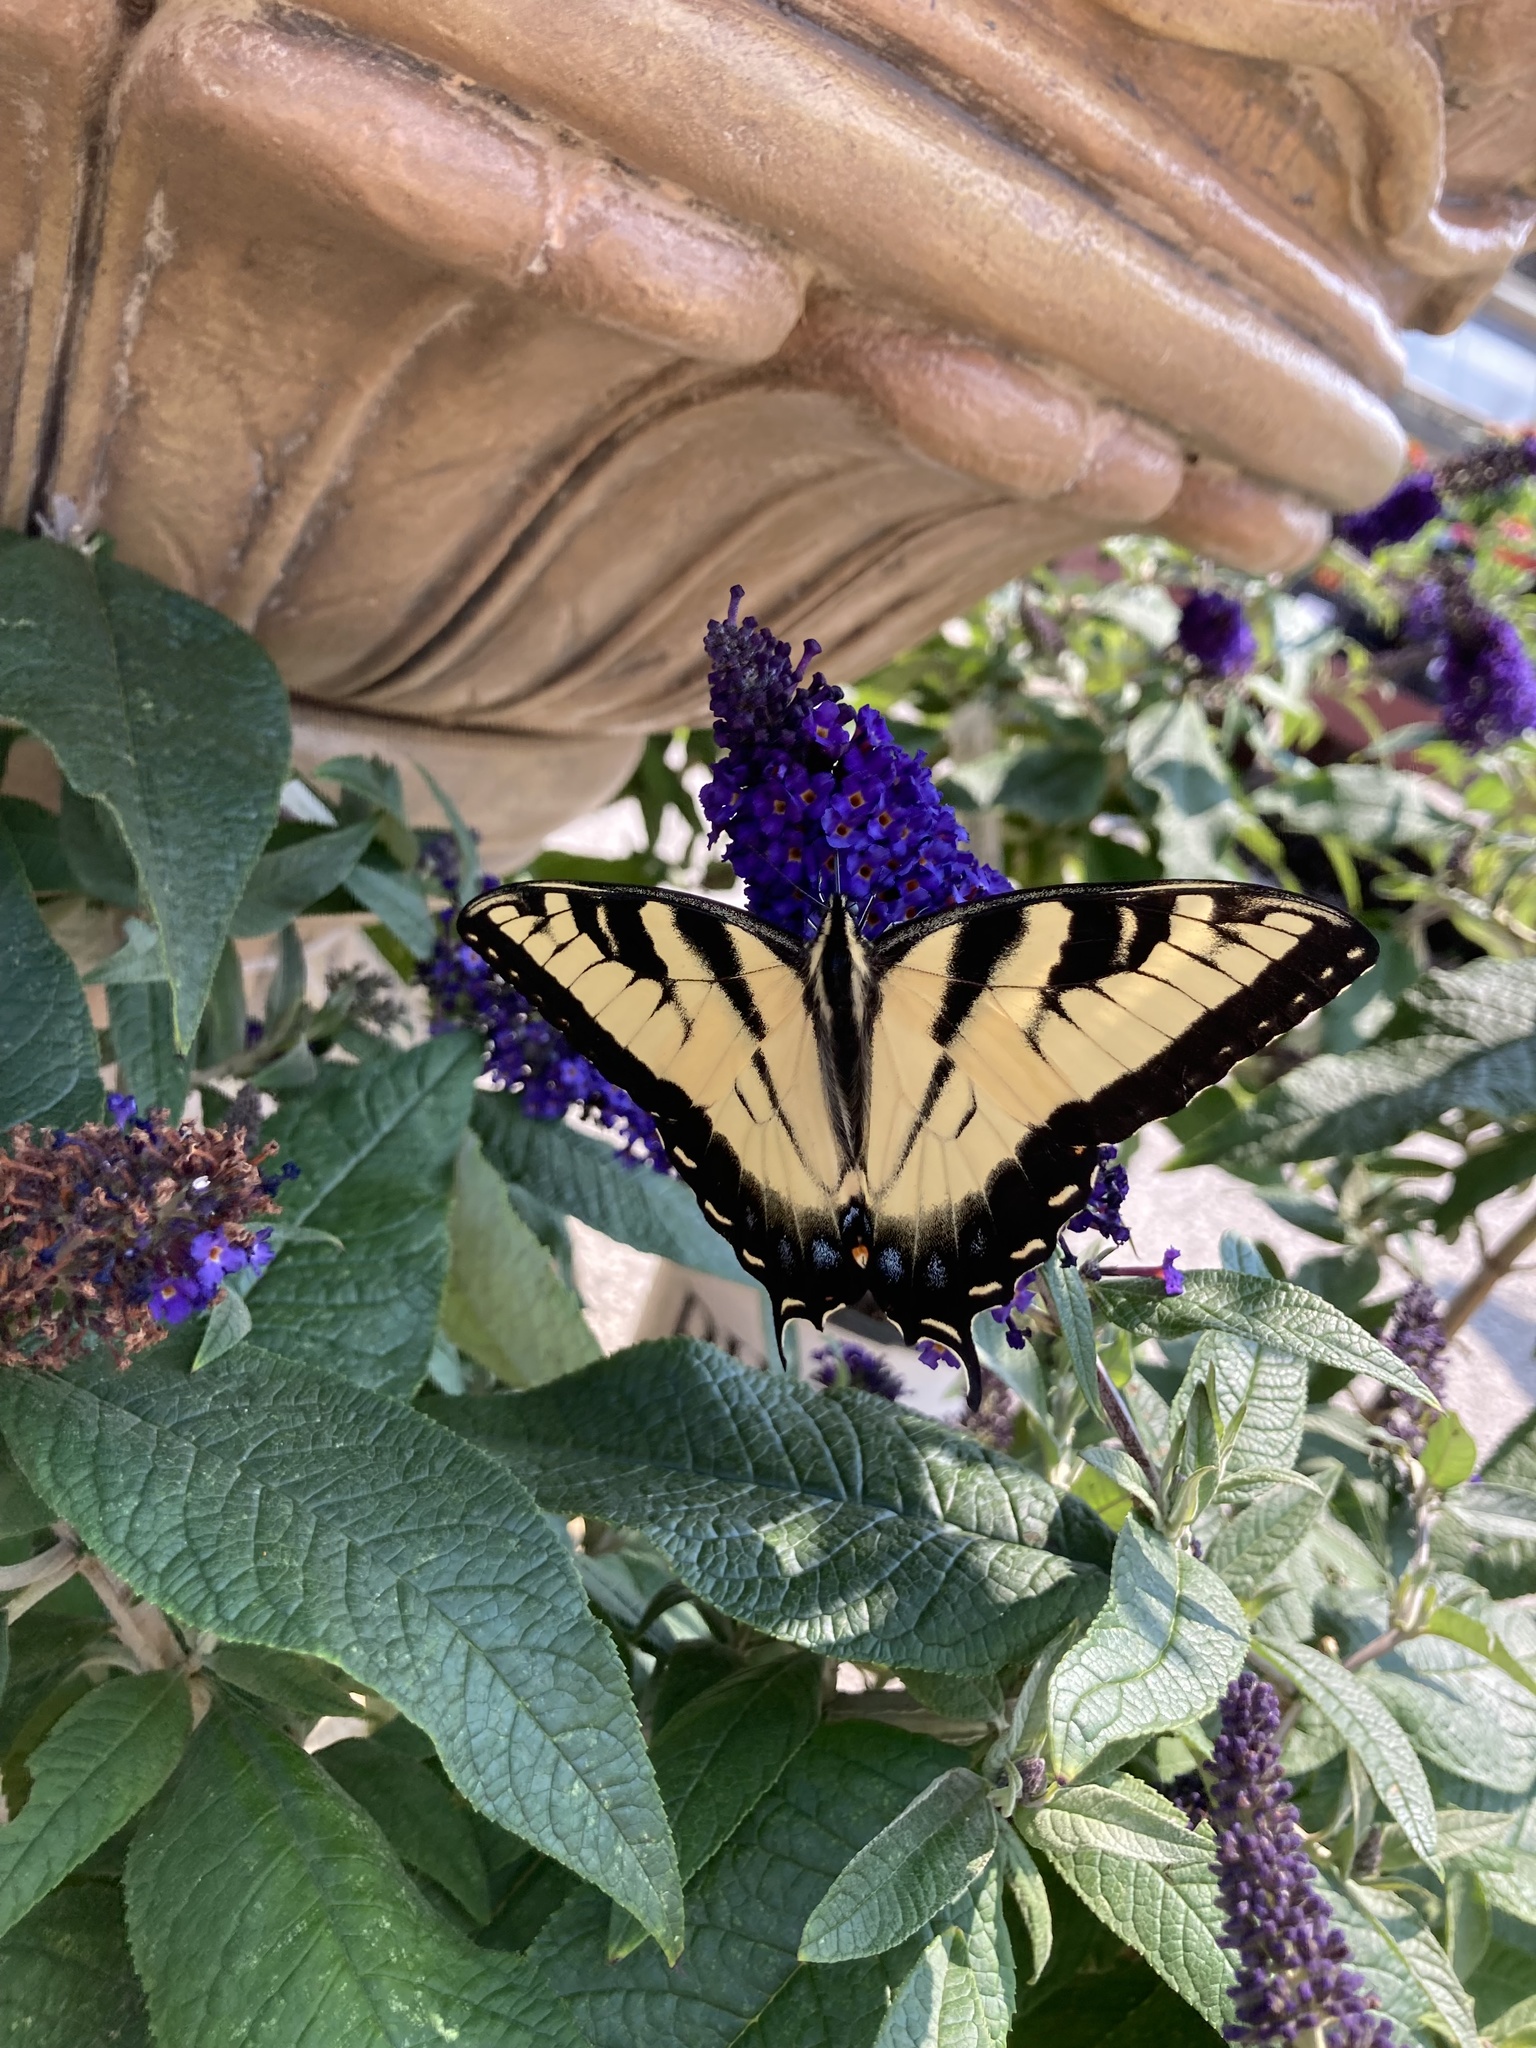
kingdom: Animalia
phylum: Arthropoda
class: Insecta
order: Lepidoptera
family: Papilionidae
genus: Papilio
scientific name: Papilio glaucus
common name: Tiger swallowtail
